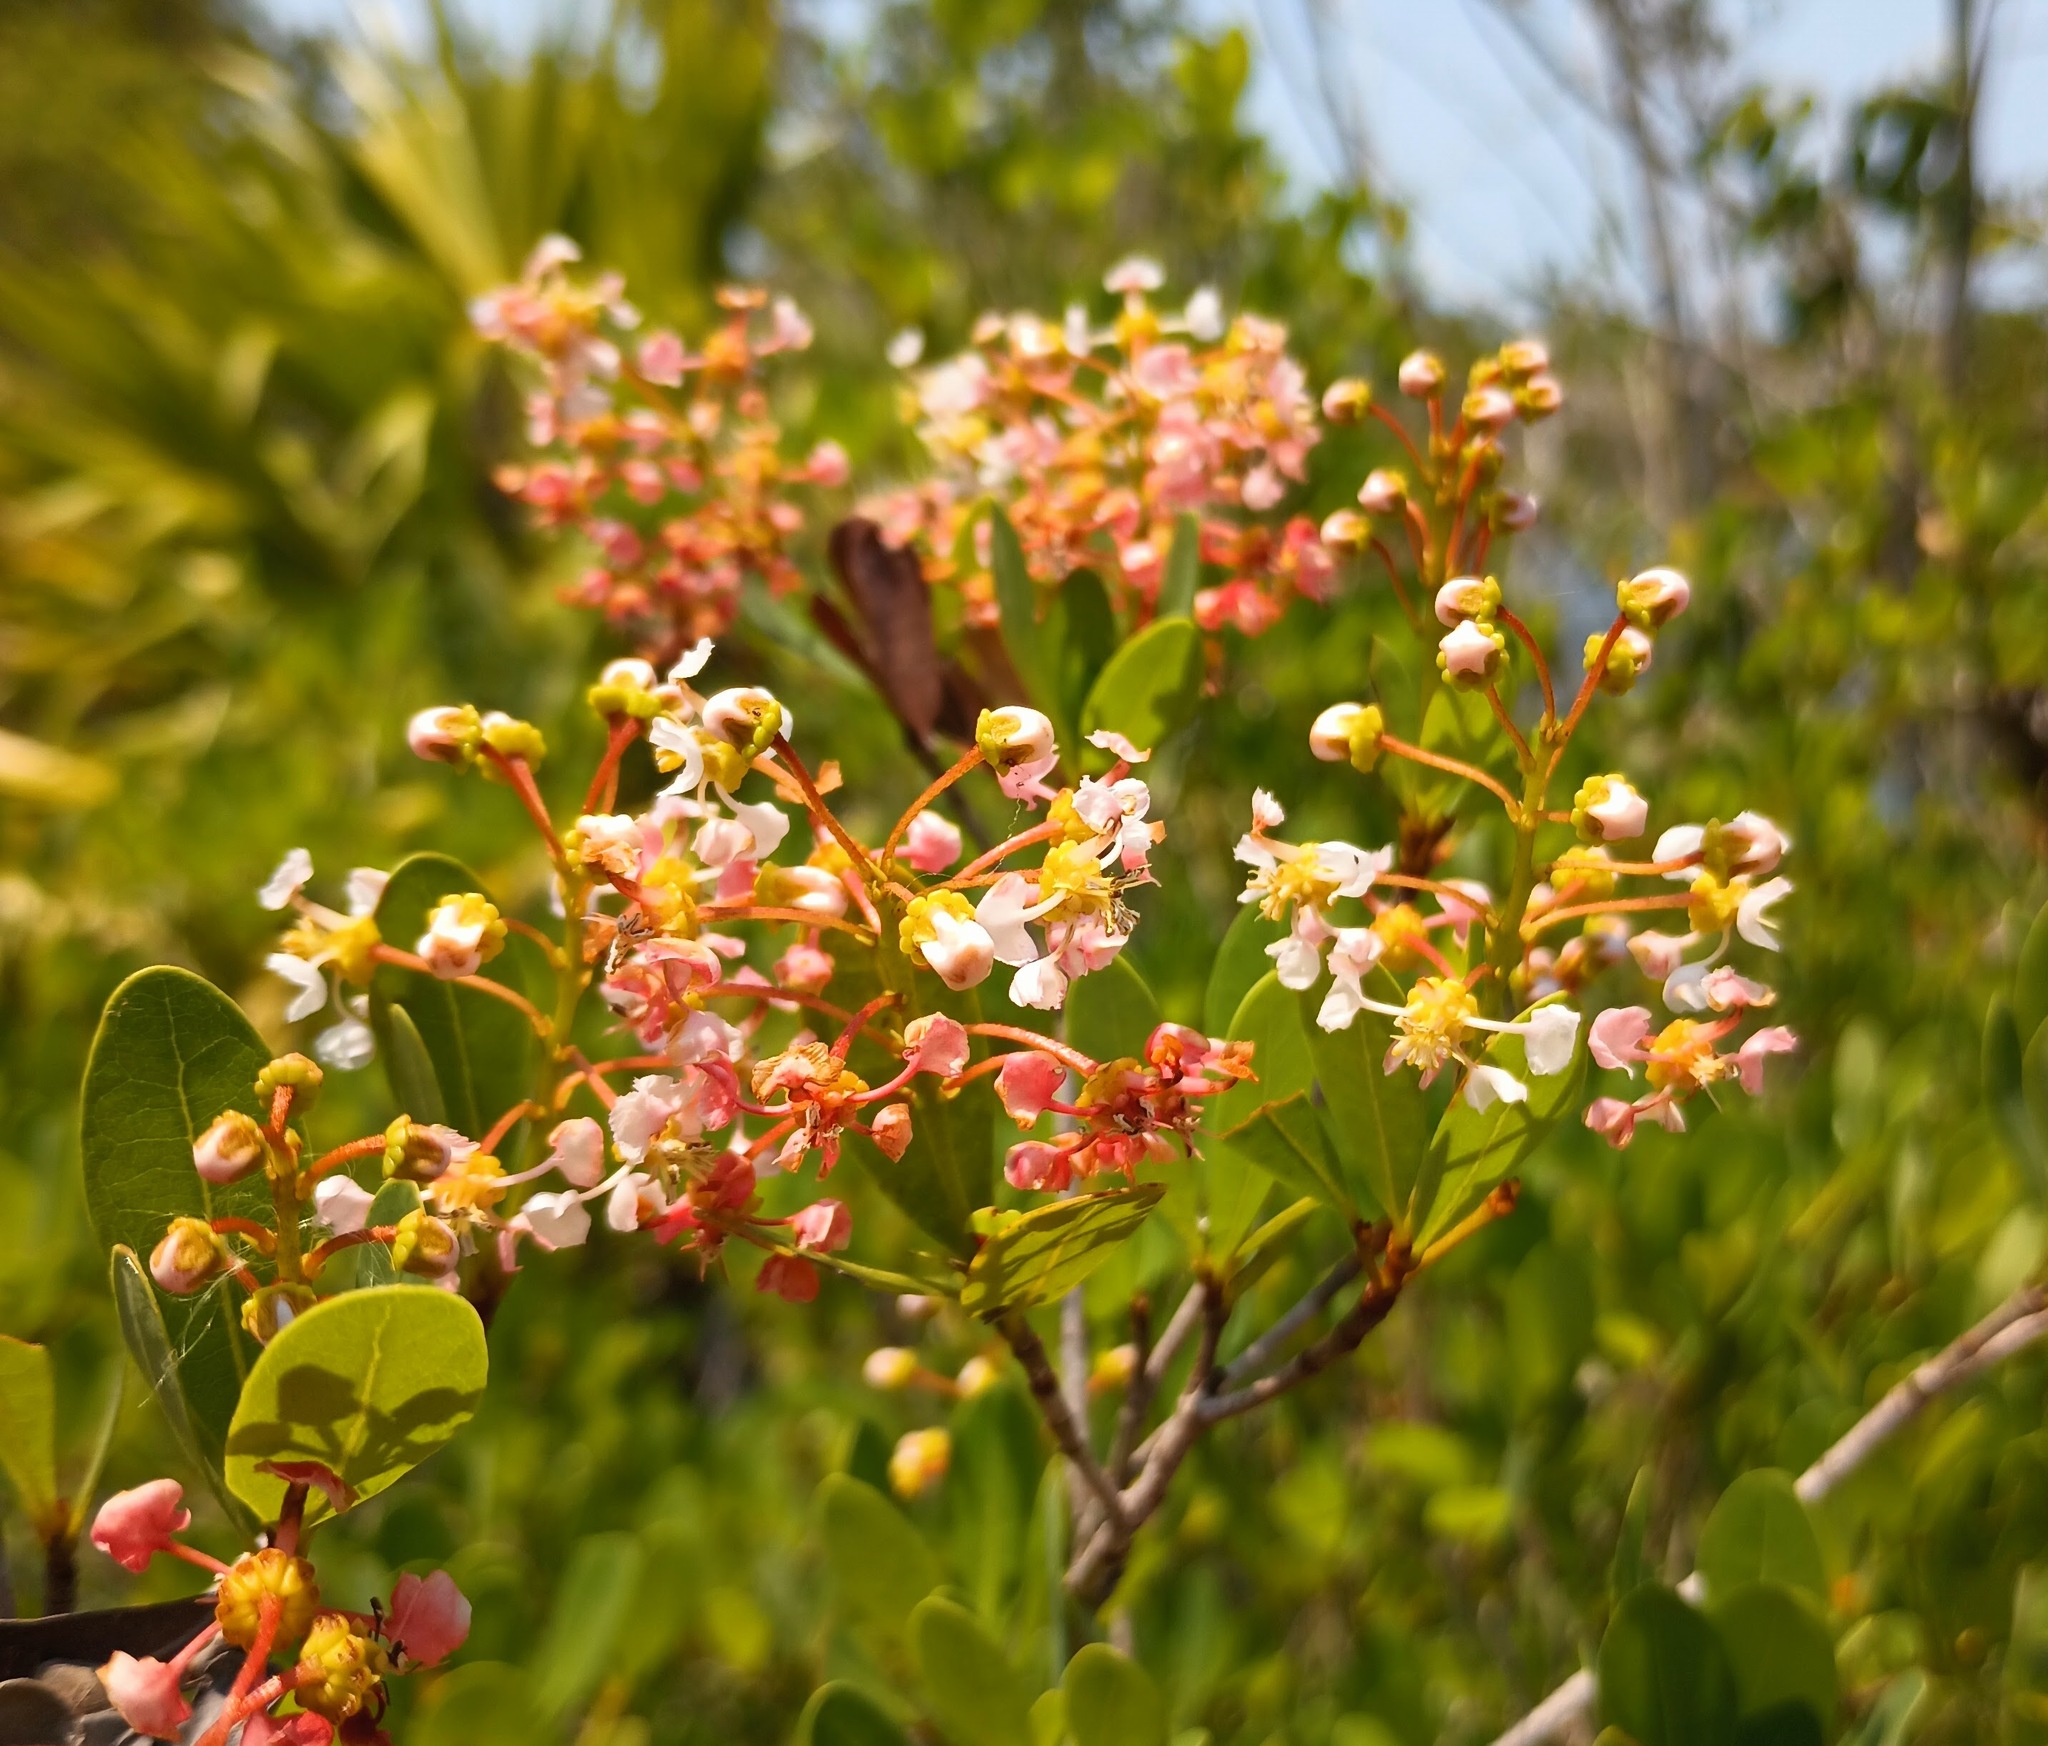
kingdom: Plantae
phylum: Tracheophyta
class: Magnoliopsida
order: Malpighiales
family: Malpighiaceae
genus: Byrsonima
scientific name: Byrsonima lucida
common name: Clam-cherry
